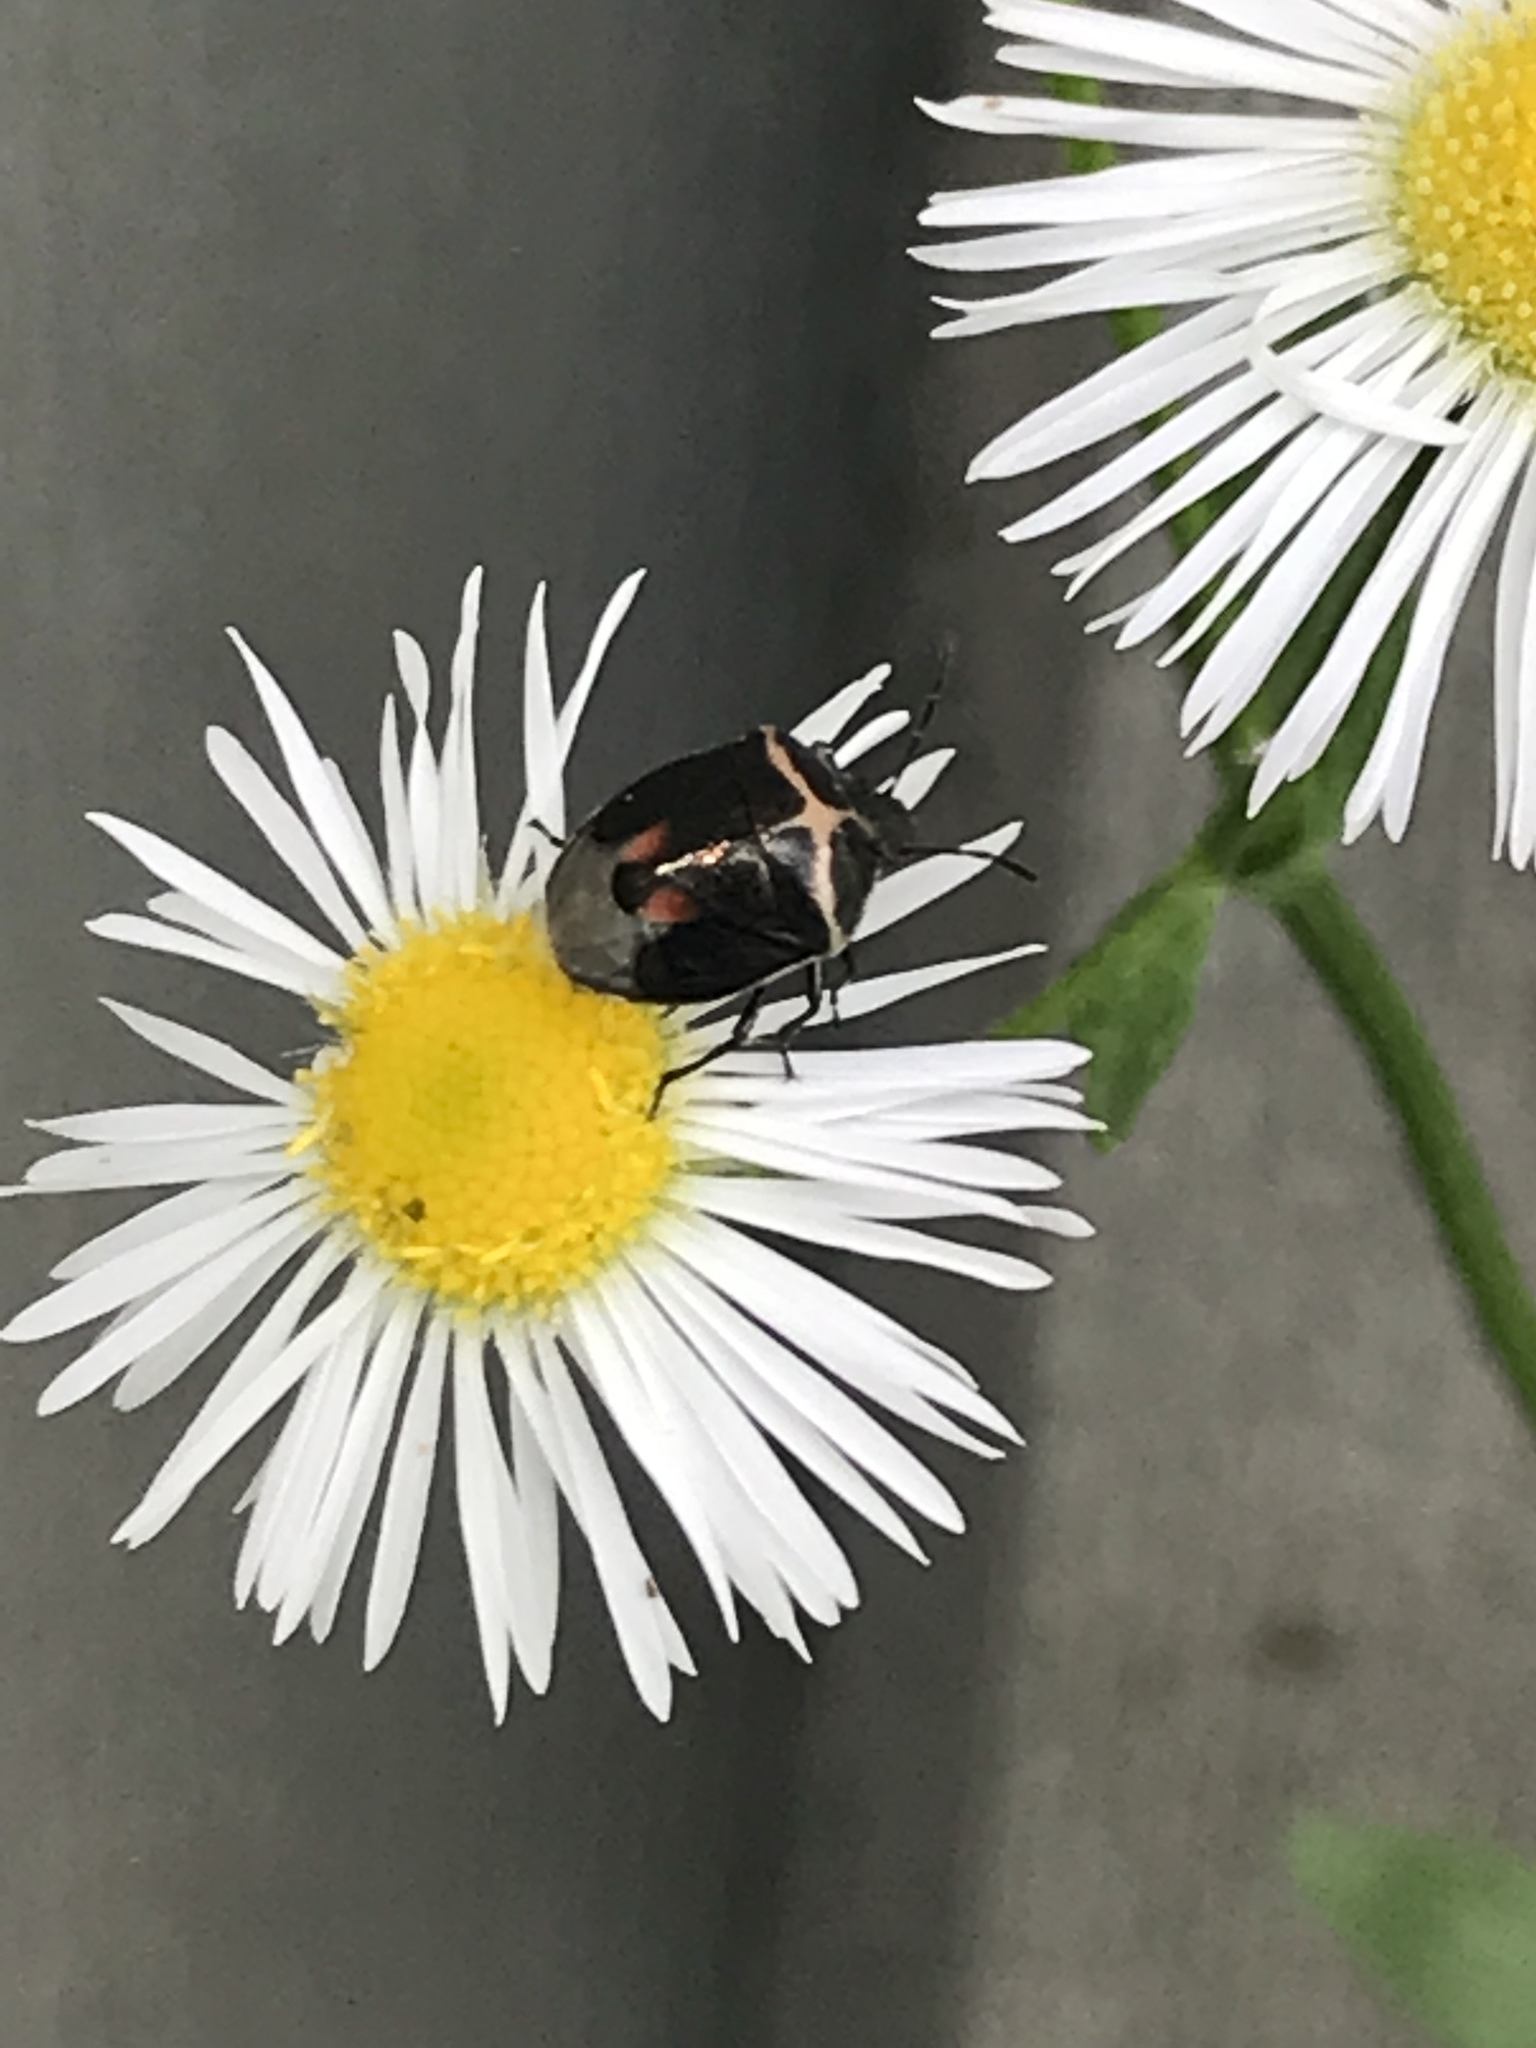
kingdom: Animalia
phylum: Arthropoda
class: Insecta
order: Hemiptera
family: Pentatomidae
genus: Cosmopepla
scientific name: Cosmopepla lintneriana
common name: Twice-stabbed stink bug
